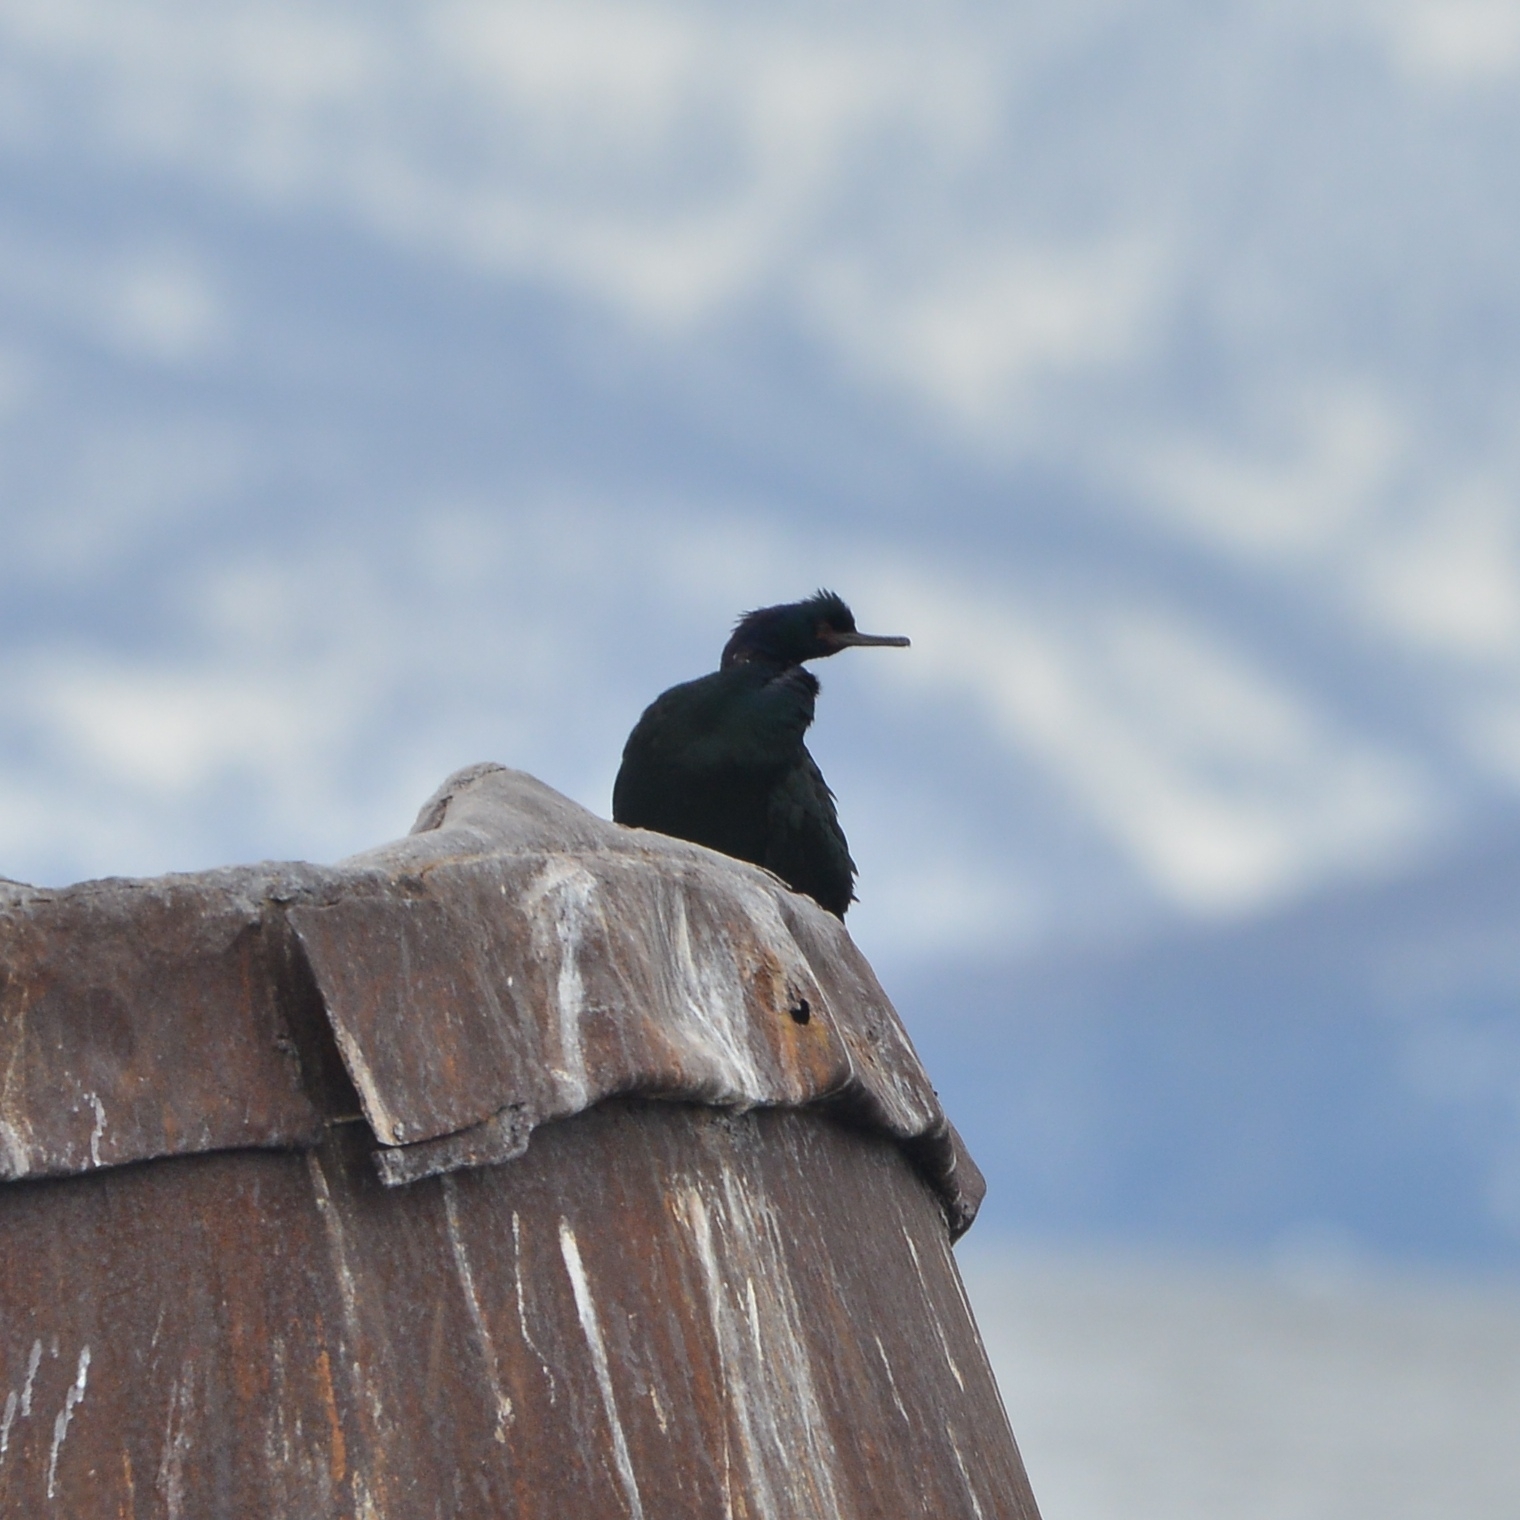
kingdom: Animalia
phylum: Chordata
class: Aves
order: Suliformes
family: Phalacrocoracidae
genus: Phalacrocorax
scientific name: Phalacrocorax pelagicus
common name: Pelagic cormorant
